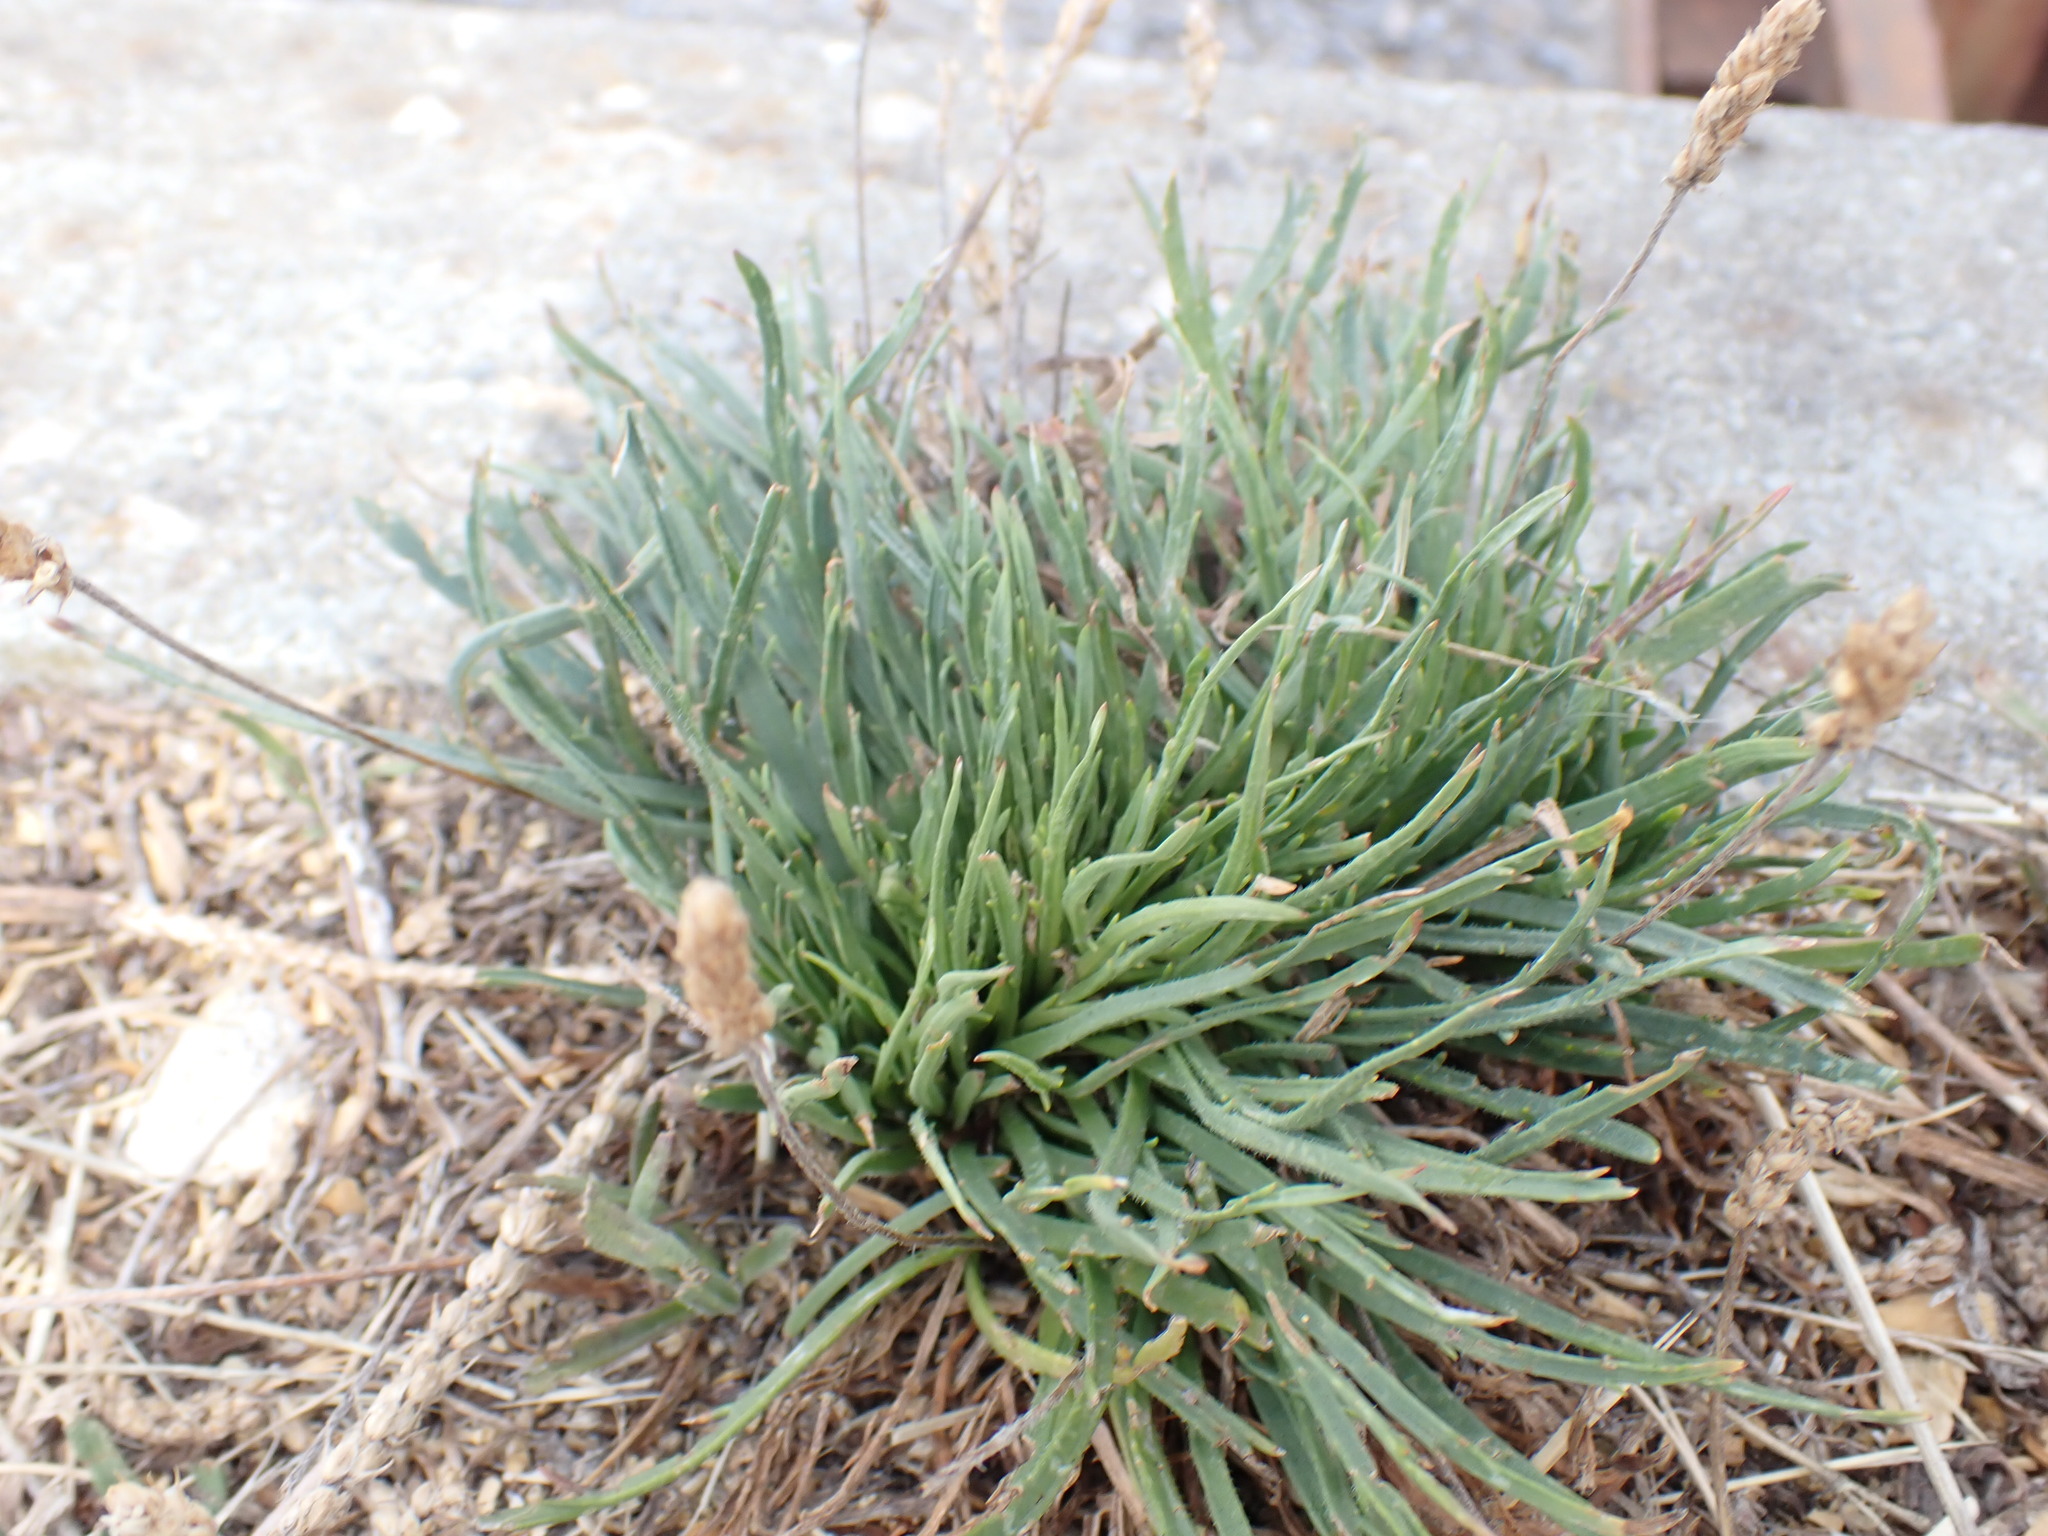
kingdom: Plantae
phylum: Tracheophyta
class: Magnoliopsida
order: Lamiales
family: Plantaginaceae
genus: Plantago
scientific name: Plantago coronopus
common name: Buck's-horn plantain
